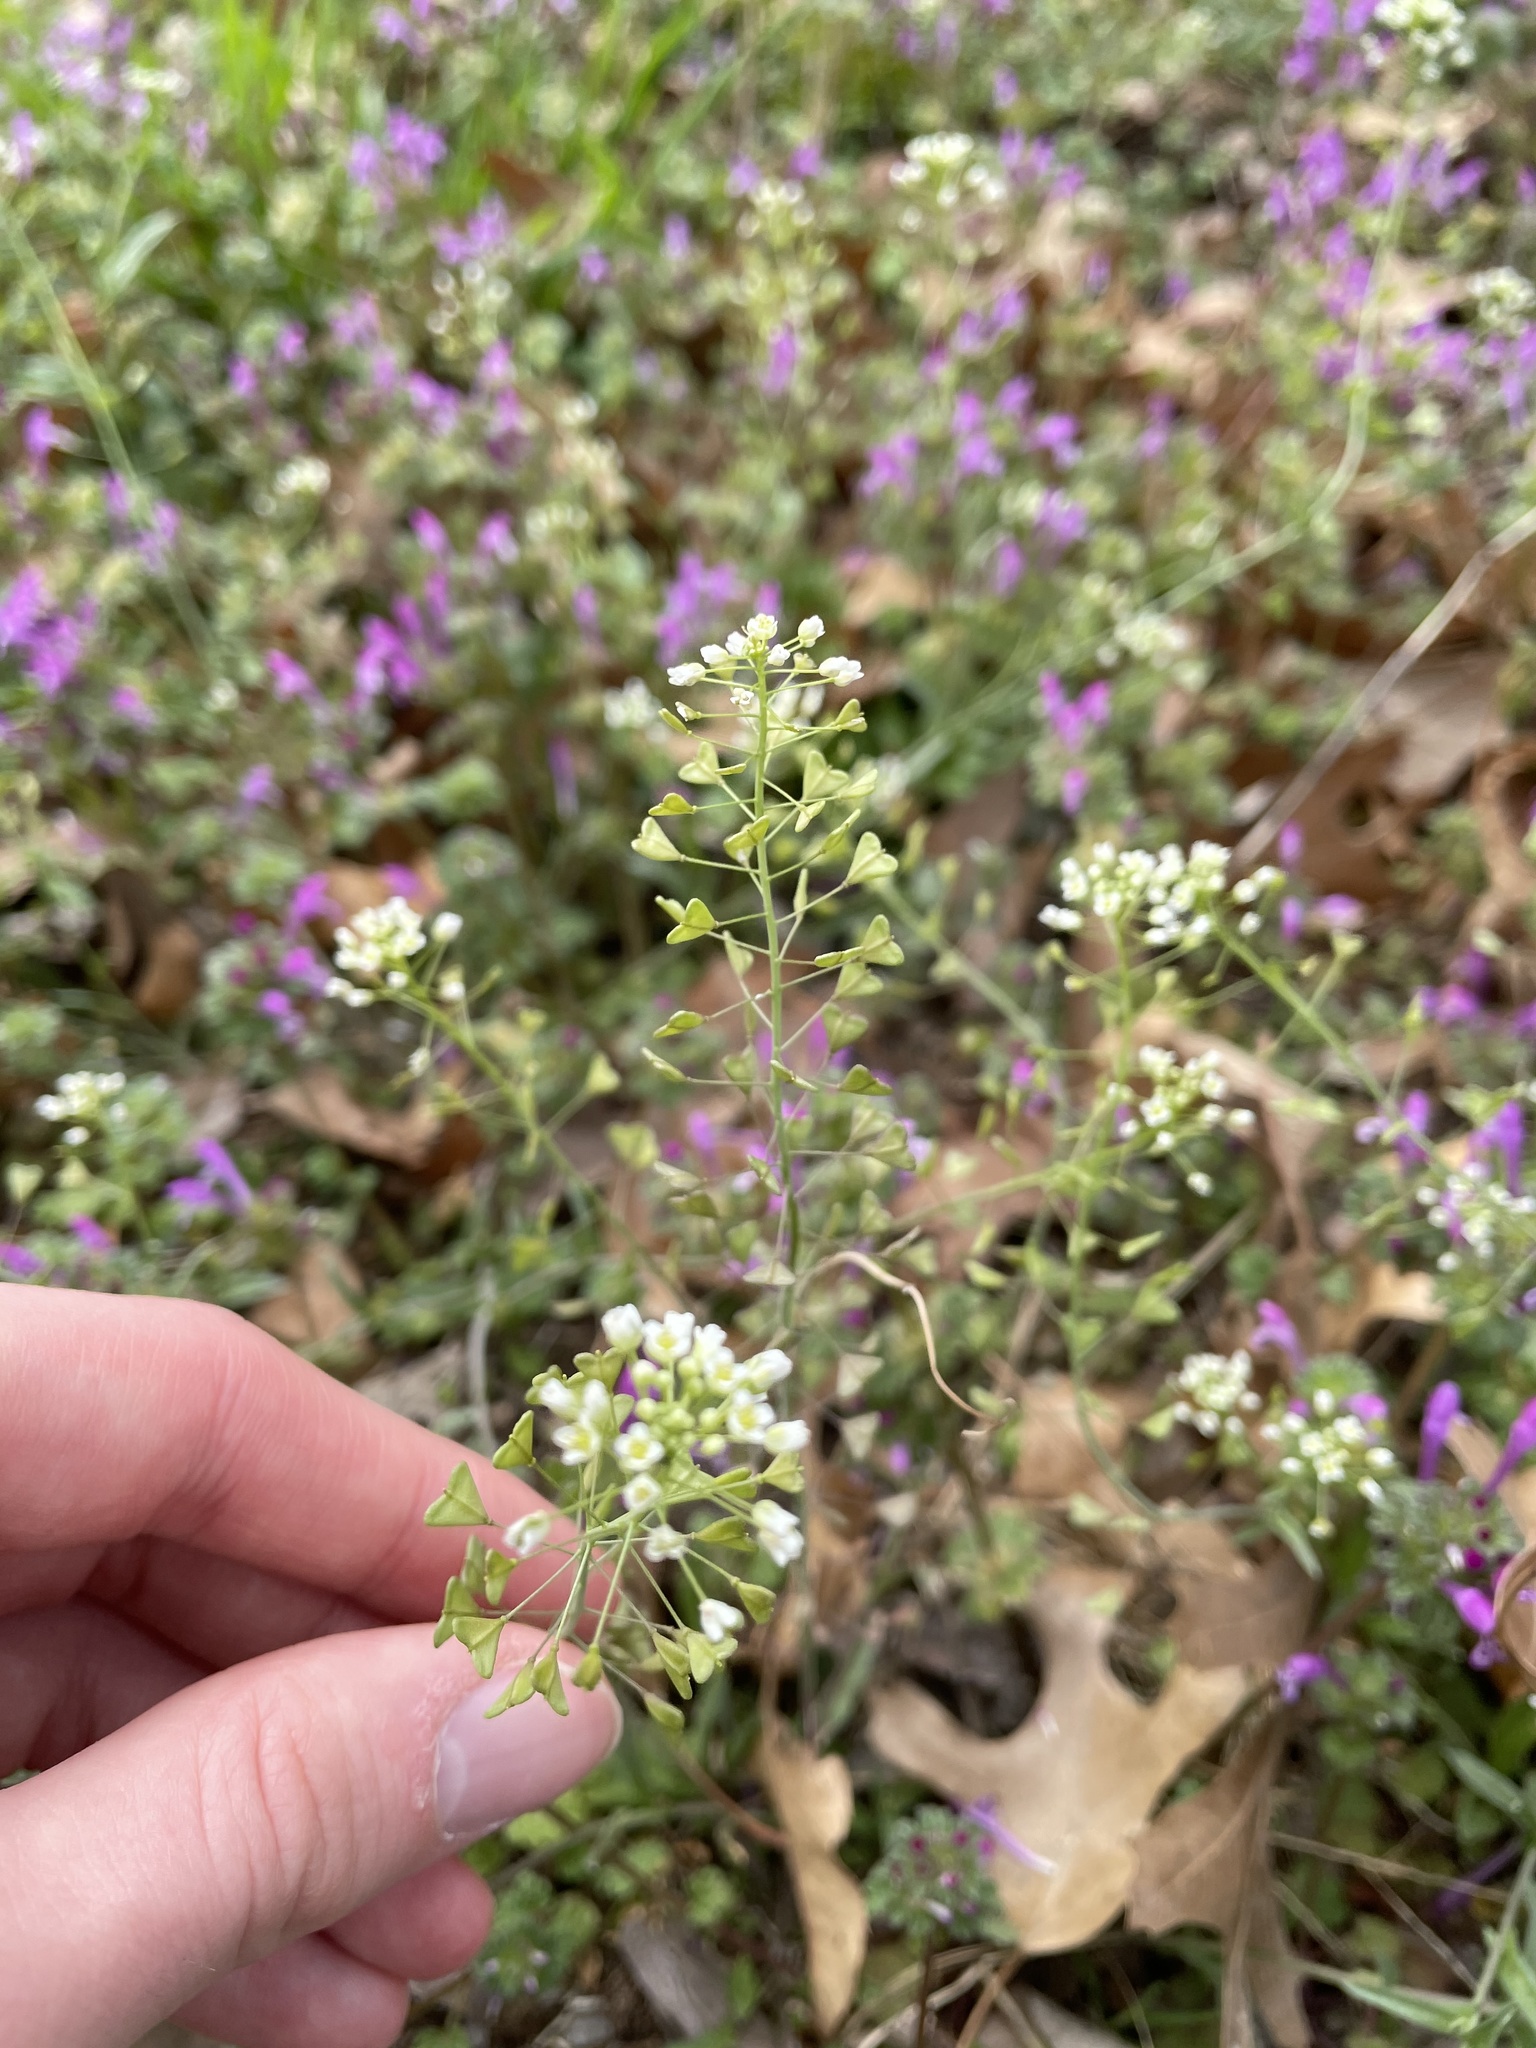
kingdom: Plantae
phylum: Tracheophyta
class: Magnoliopsida
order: Brassicales
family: Brassicaceae
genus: Capsella
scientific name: Capsella bursa-pastoris
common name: Shepherd's purse
